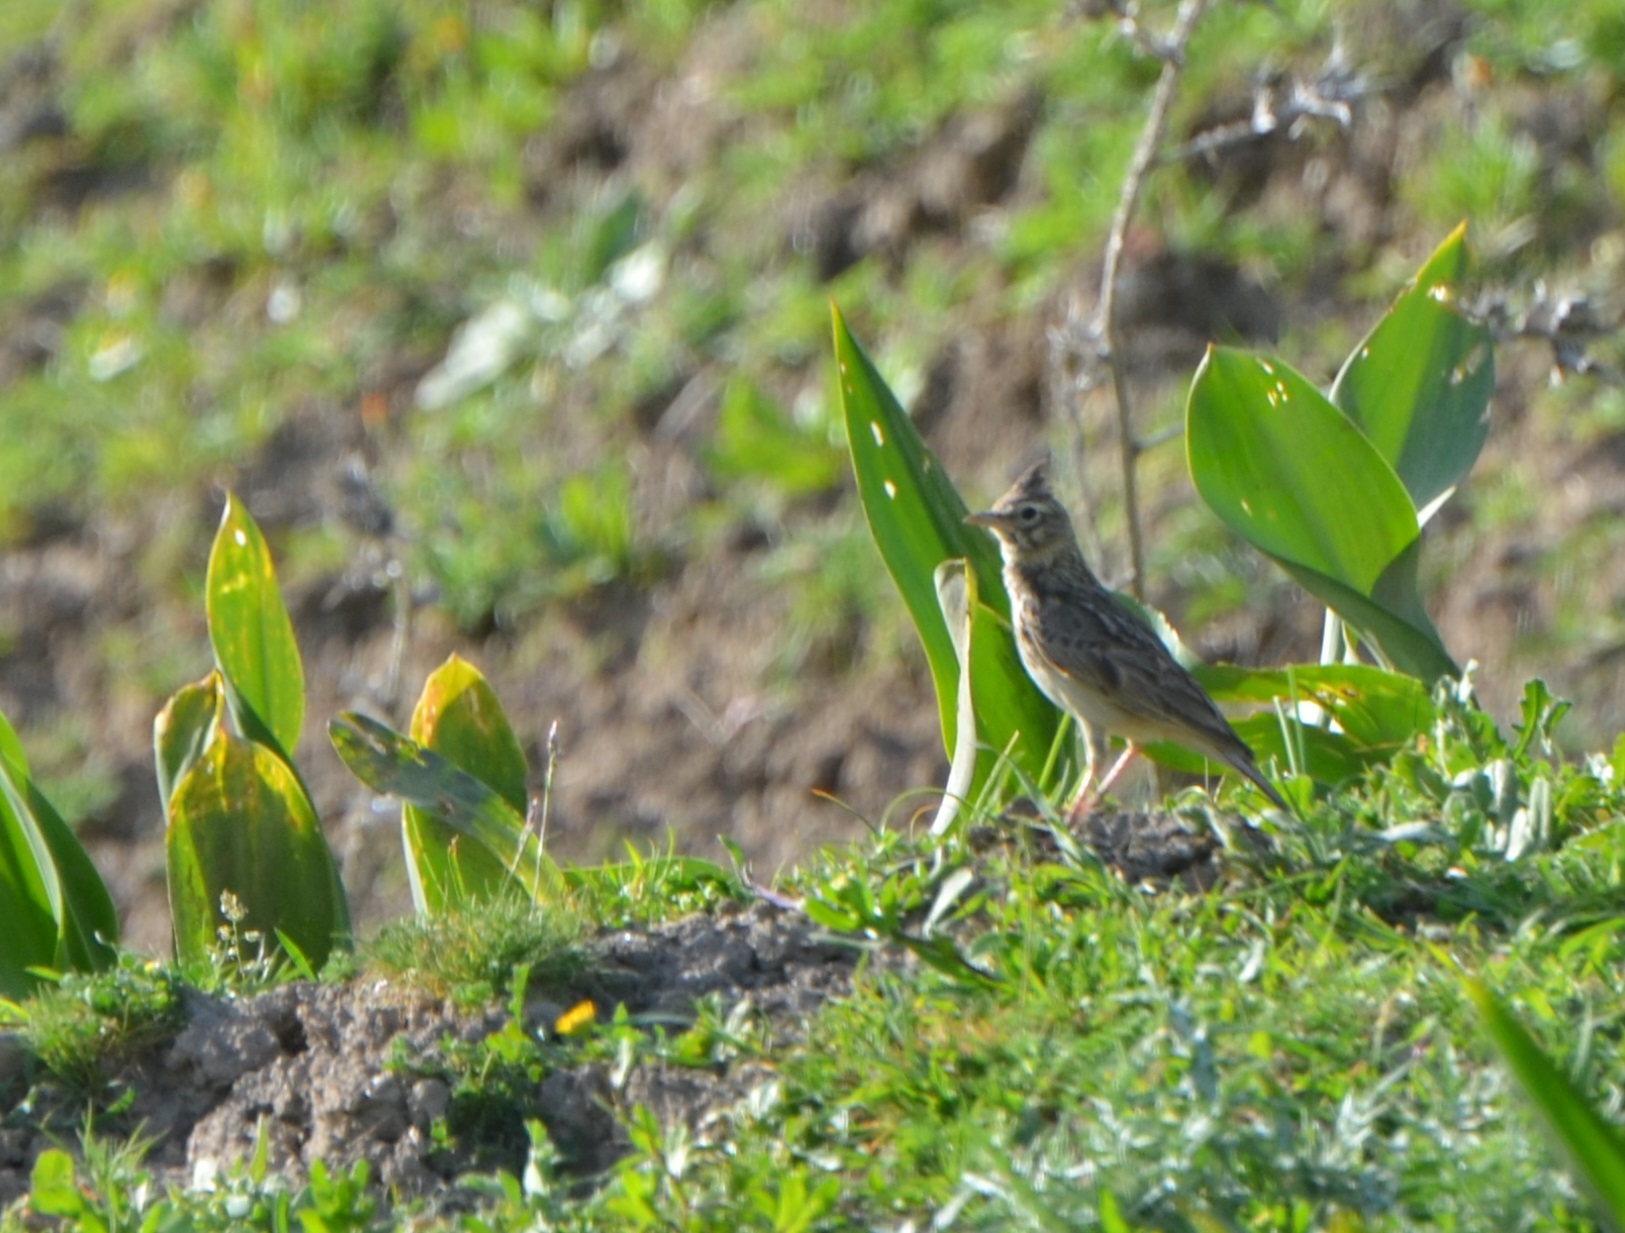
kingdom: Animalia
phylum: Chordata
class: Aves
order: Passeriformes
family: Alaudidae
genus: Galerida
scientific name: Galerida cristata
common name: Crested lark
